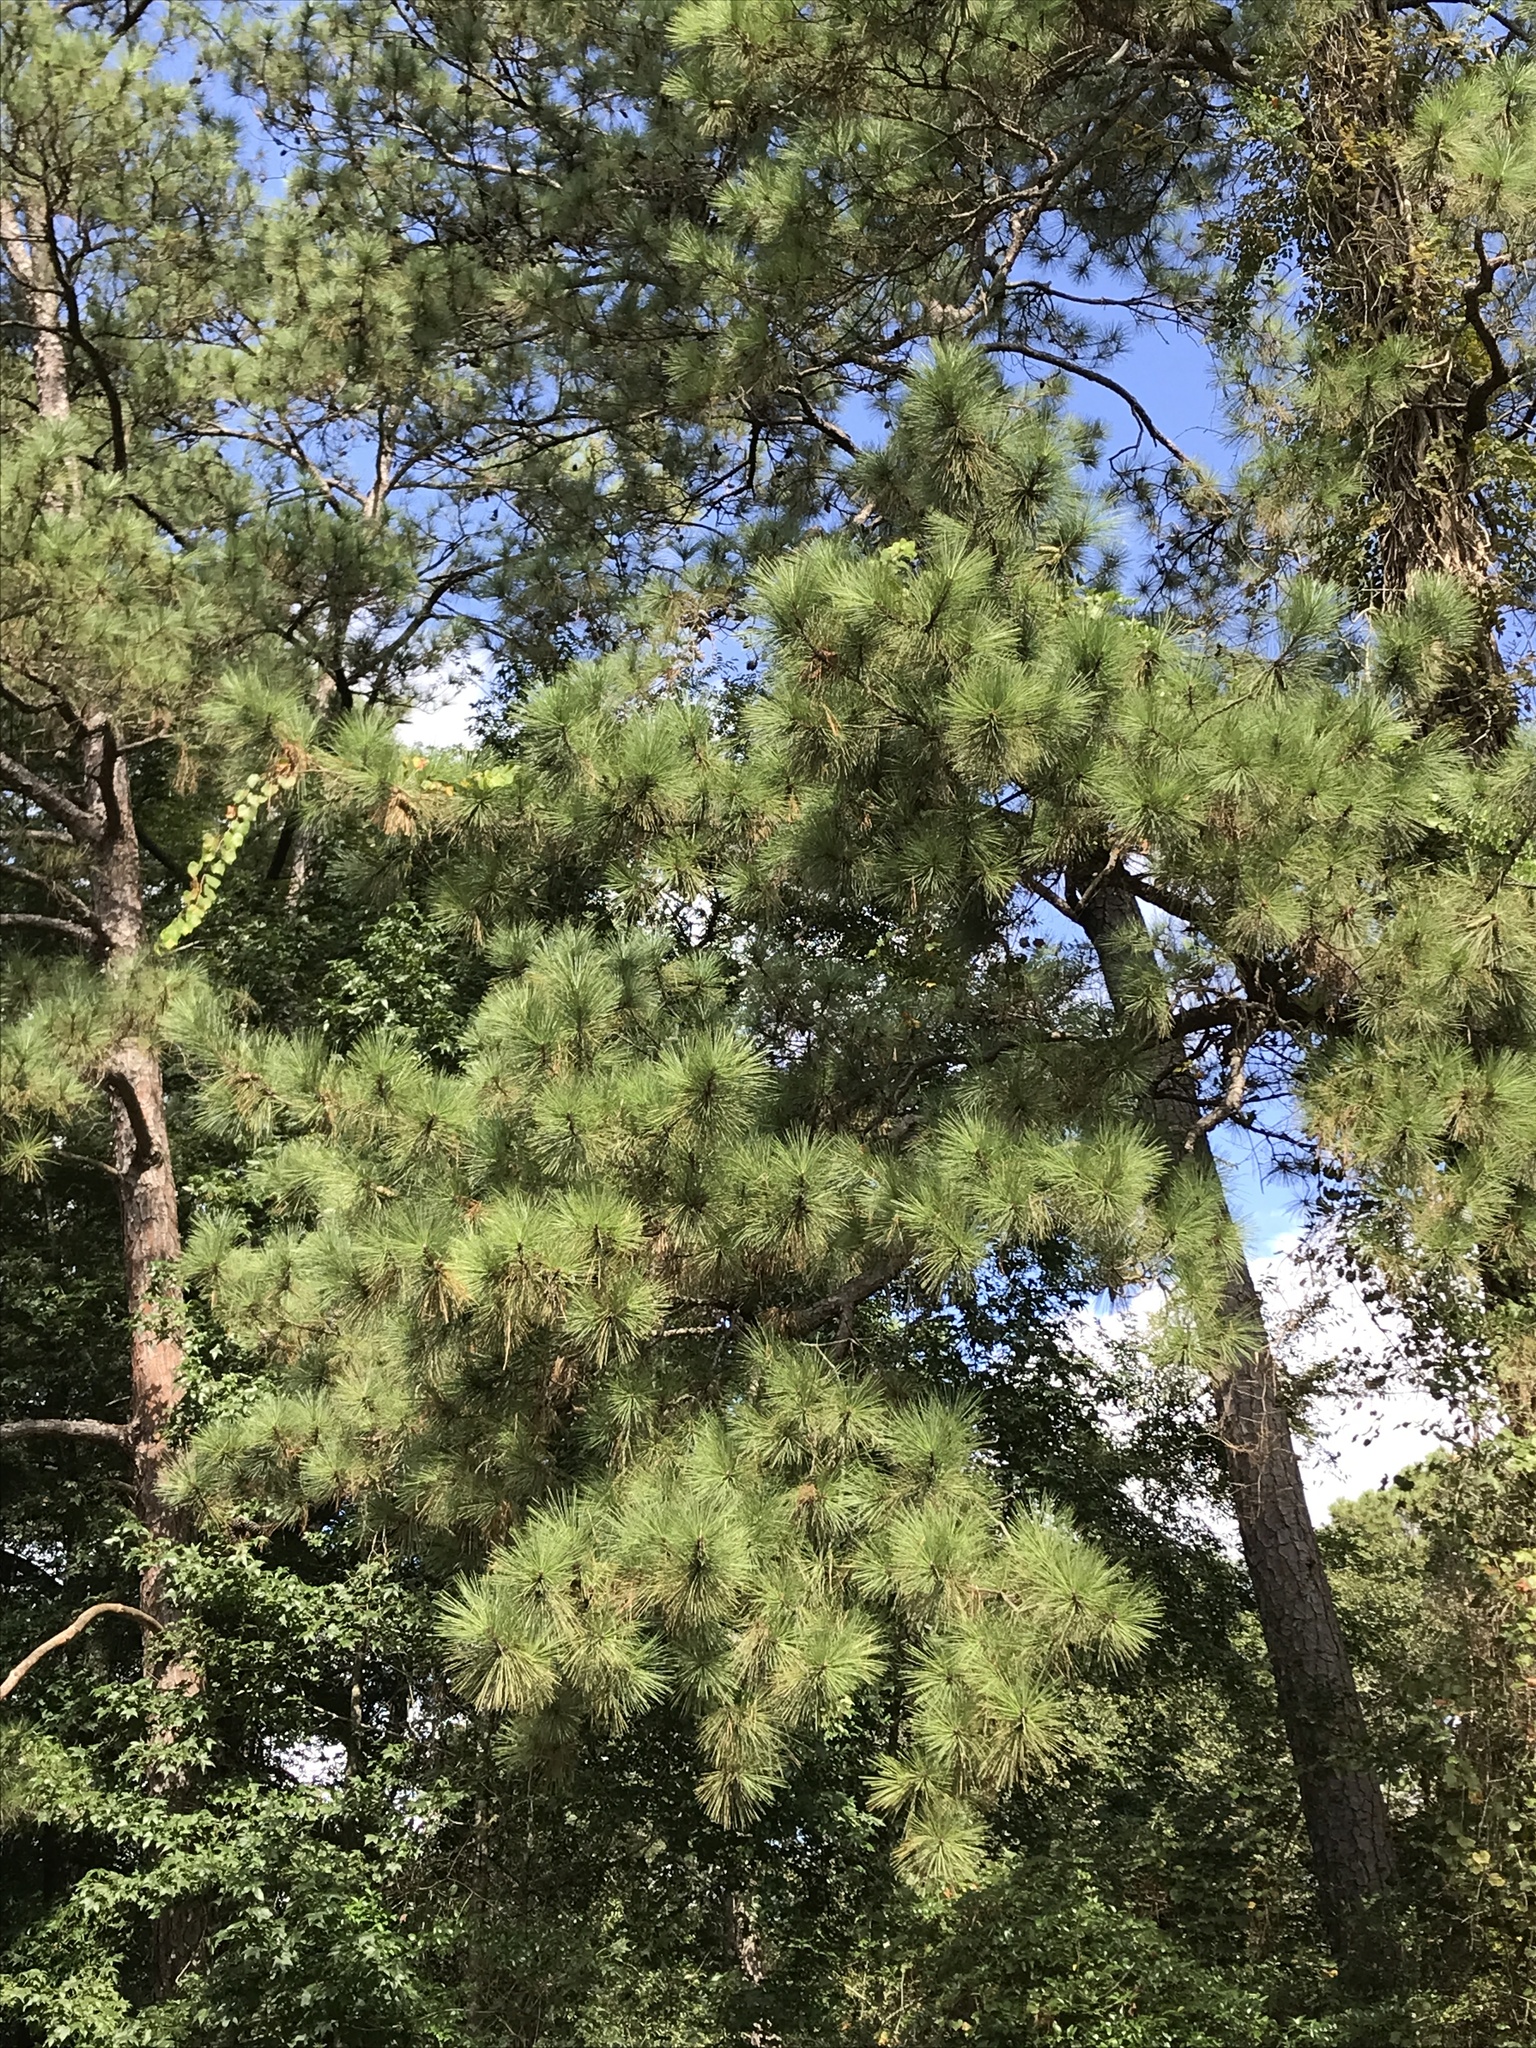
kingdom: Plantae
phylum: Tracheophyta
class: Pinopsida
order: Pinales
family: Pinaceae
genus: Pinus
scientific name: Pinus taeda
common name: Loblolly pine
